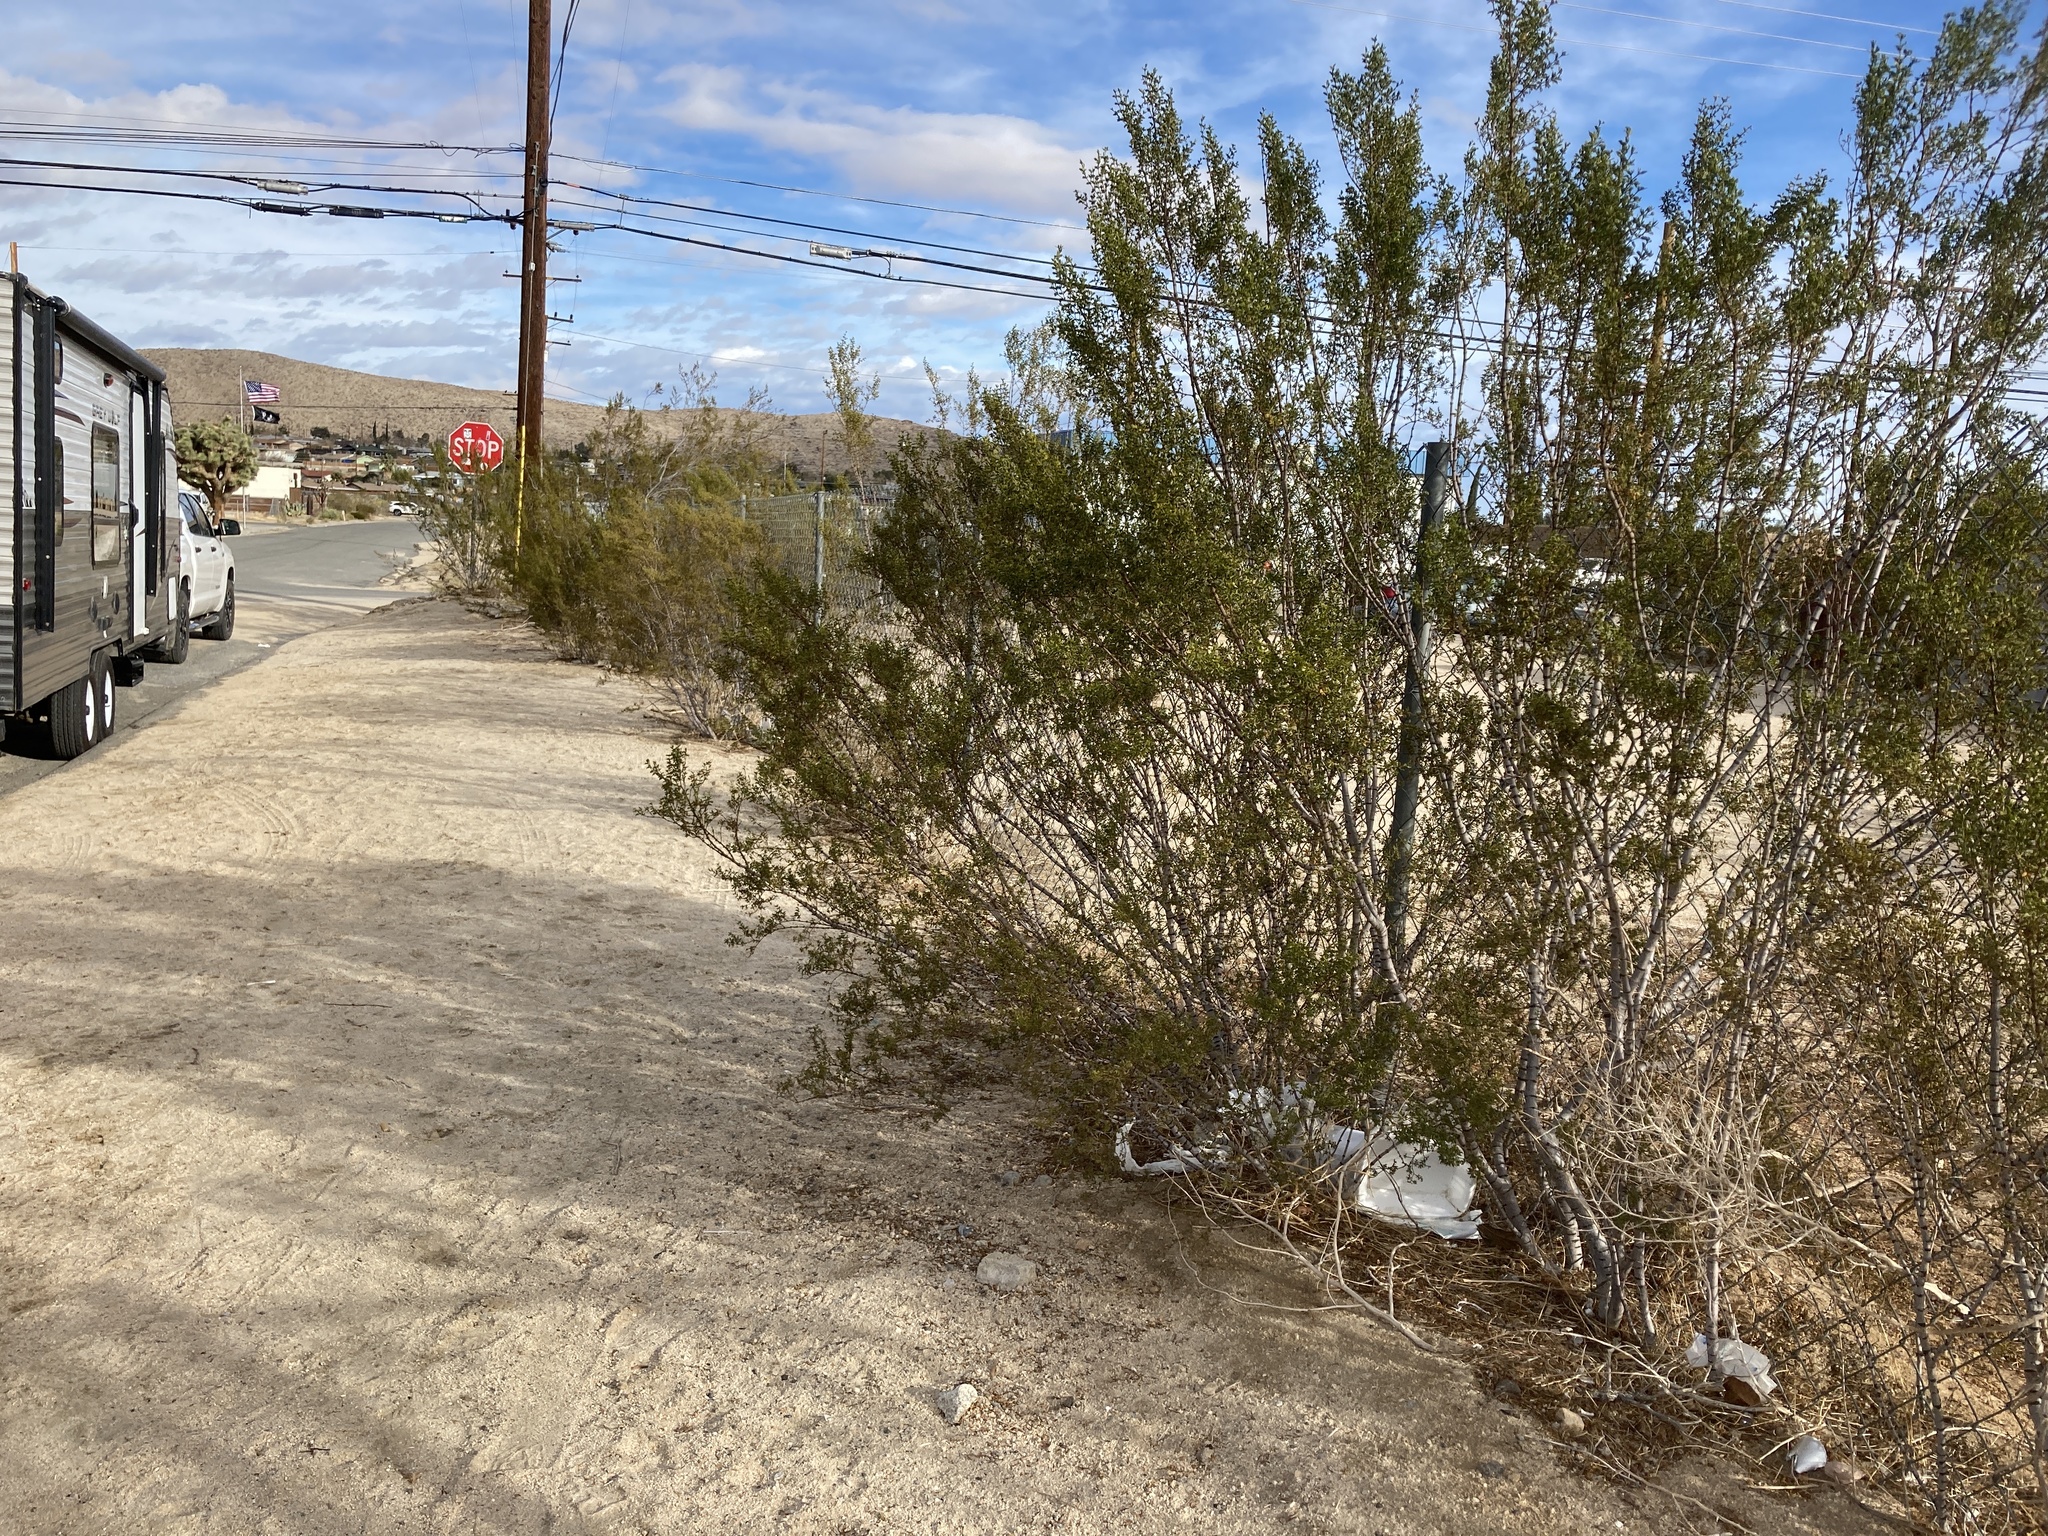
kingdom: Plantae
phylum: Tracheophyta
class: Magnoliopsida
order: Zygophyllales
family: Zygophyllaceae
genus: Larrea
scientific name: Larrea tridentata
